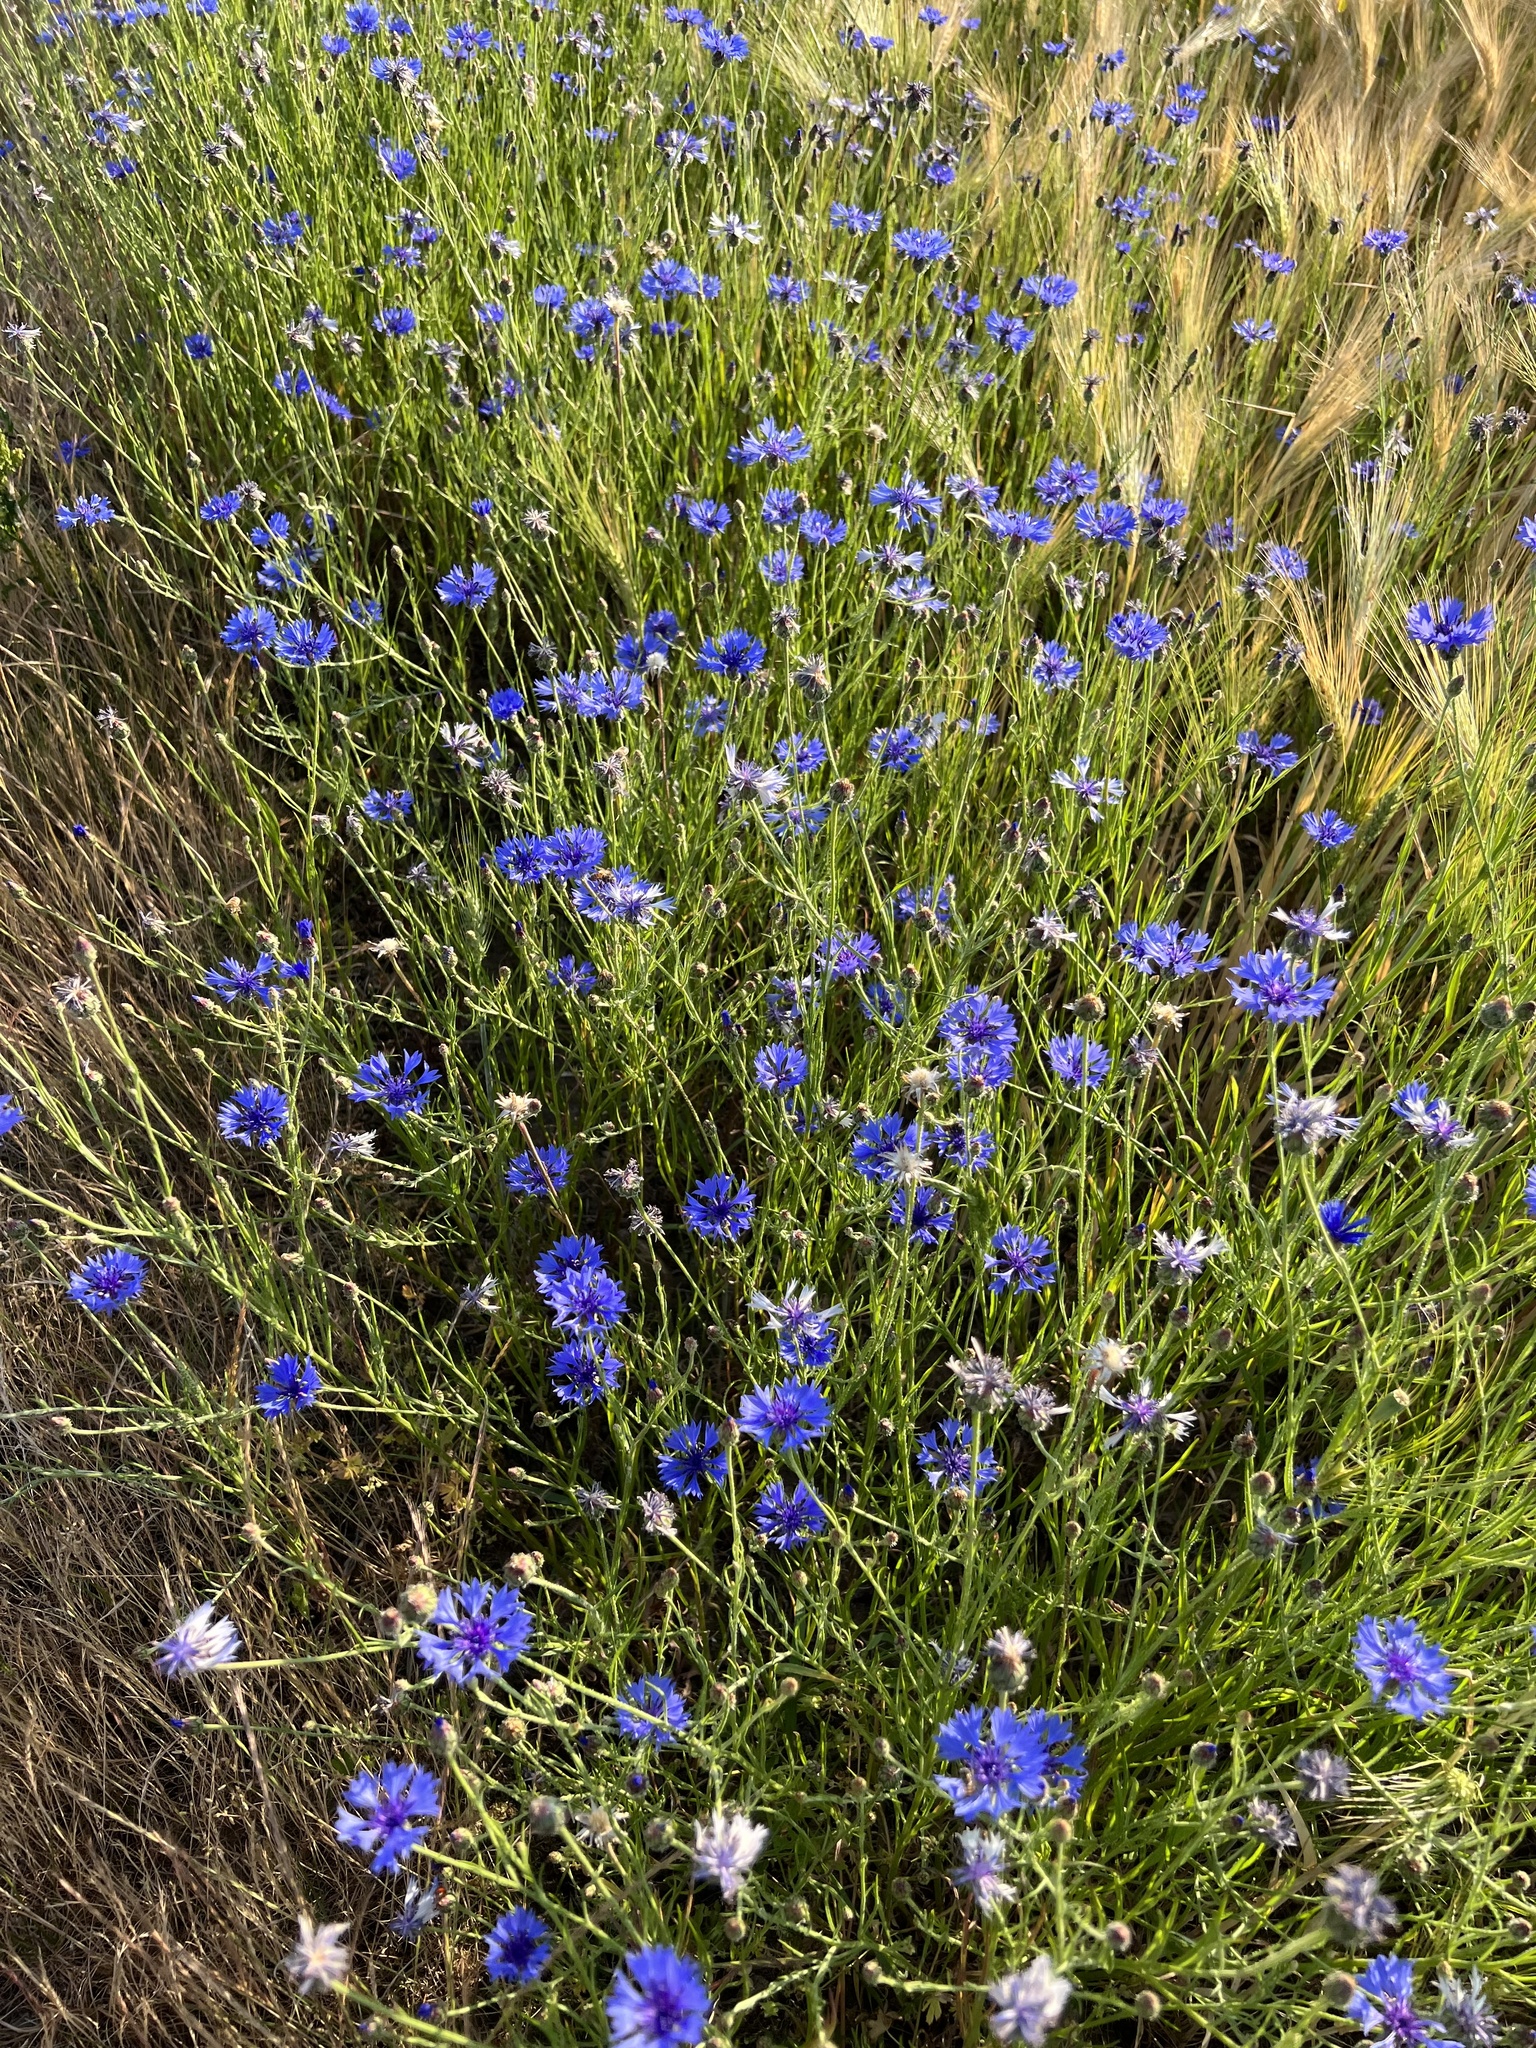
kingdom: Plantae
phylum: Tracheophyta
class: Magnoliopsida
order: Asterales
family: Asteraceae
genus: Centaurea
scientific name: Centaurea cyanus
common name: Cornflower
